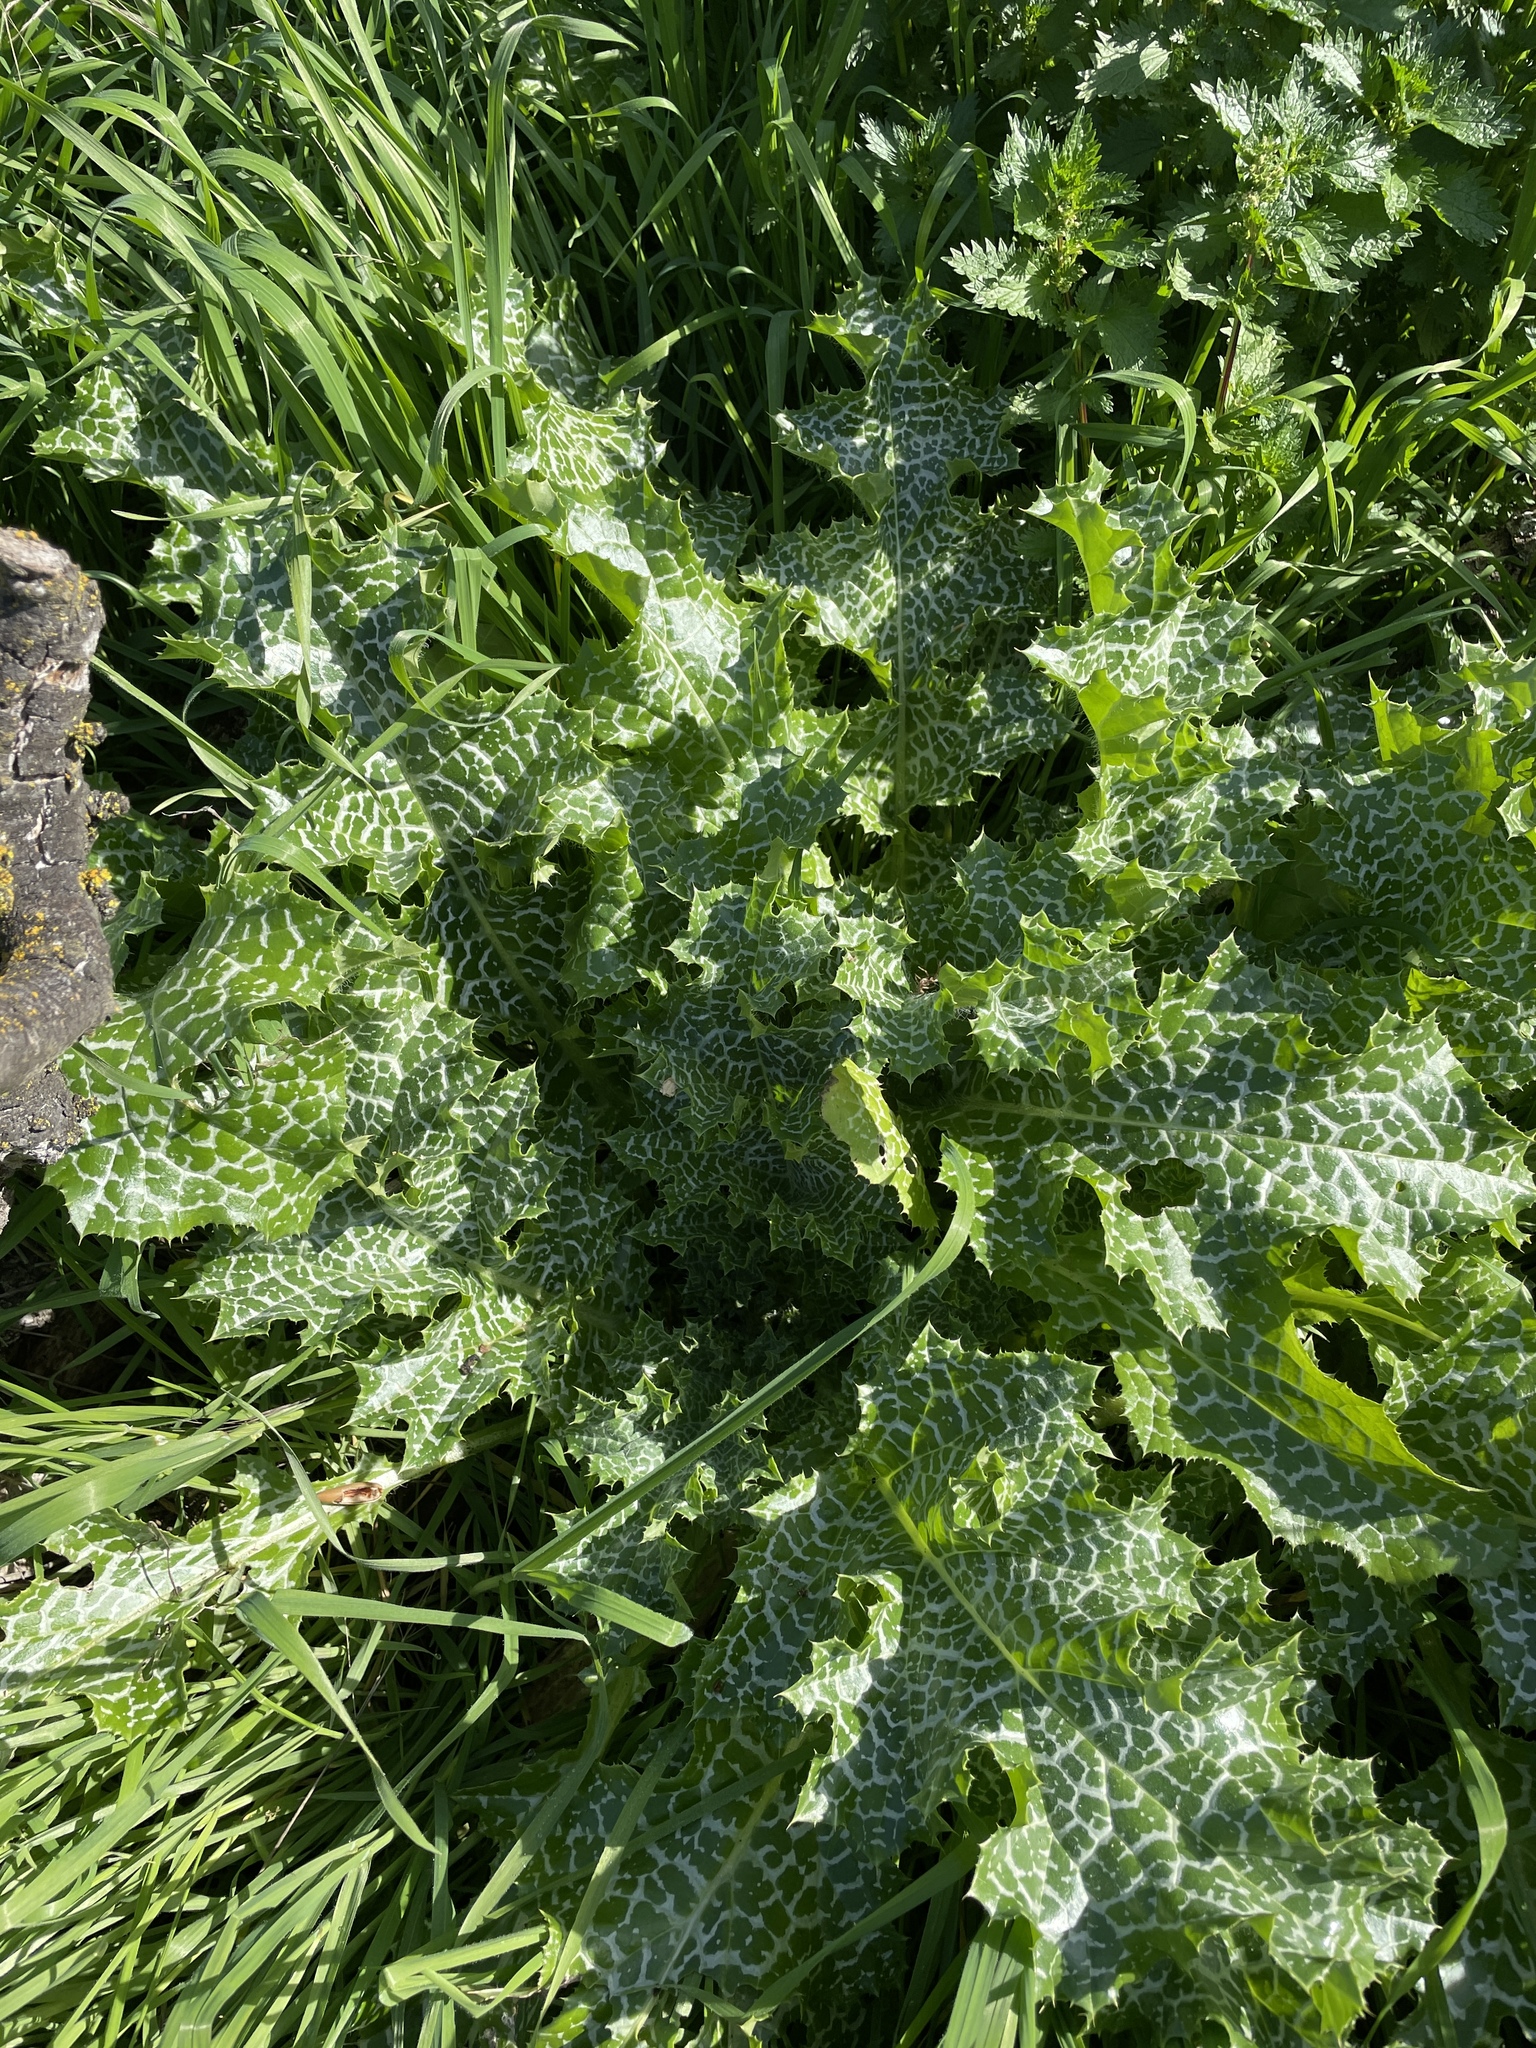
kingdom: Plantae
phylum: Tracheophyta
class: Magnoliopsida
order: Asterales
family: Asteraceae
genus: Silybum
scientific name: Silybum marianum
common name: Milk thistle
